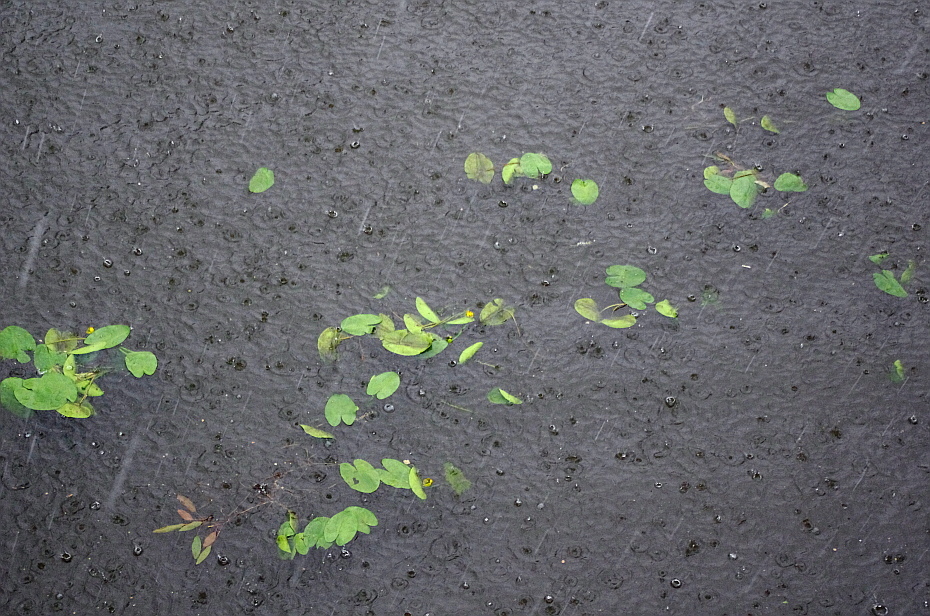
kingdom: Plantae
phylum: Tracheophyta
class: Magnoliopsida
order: Nymphaeales
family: Nymphaeaceae
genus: Nuphar
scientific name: Nuphar lutea
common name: Yellow water-lily
